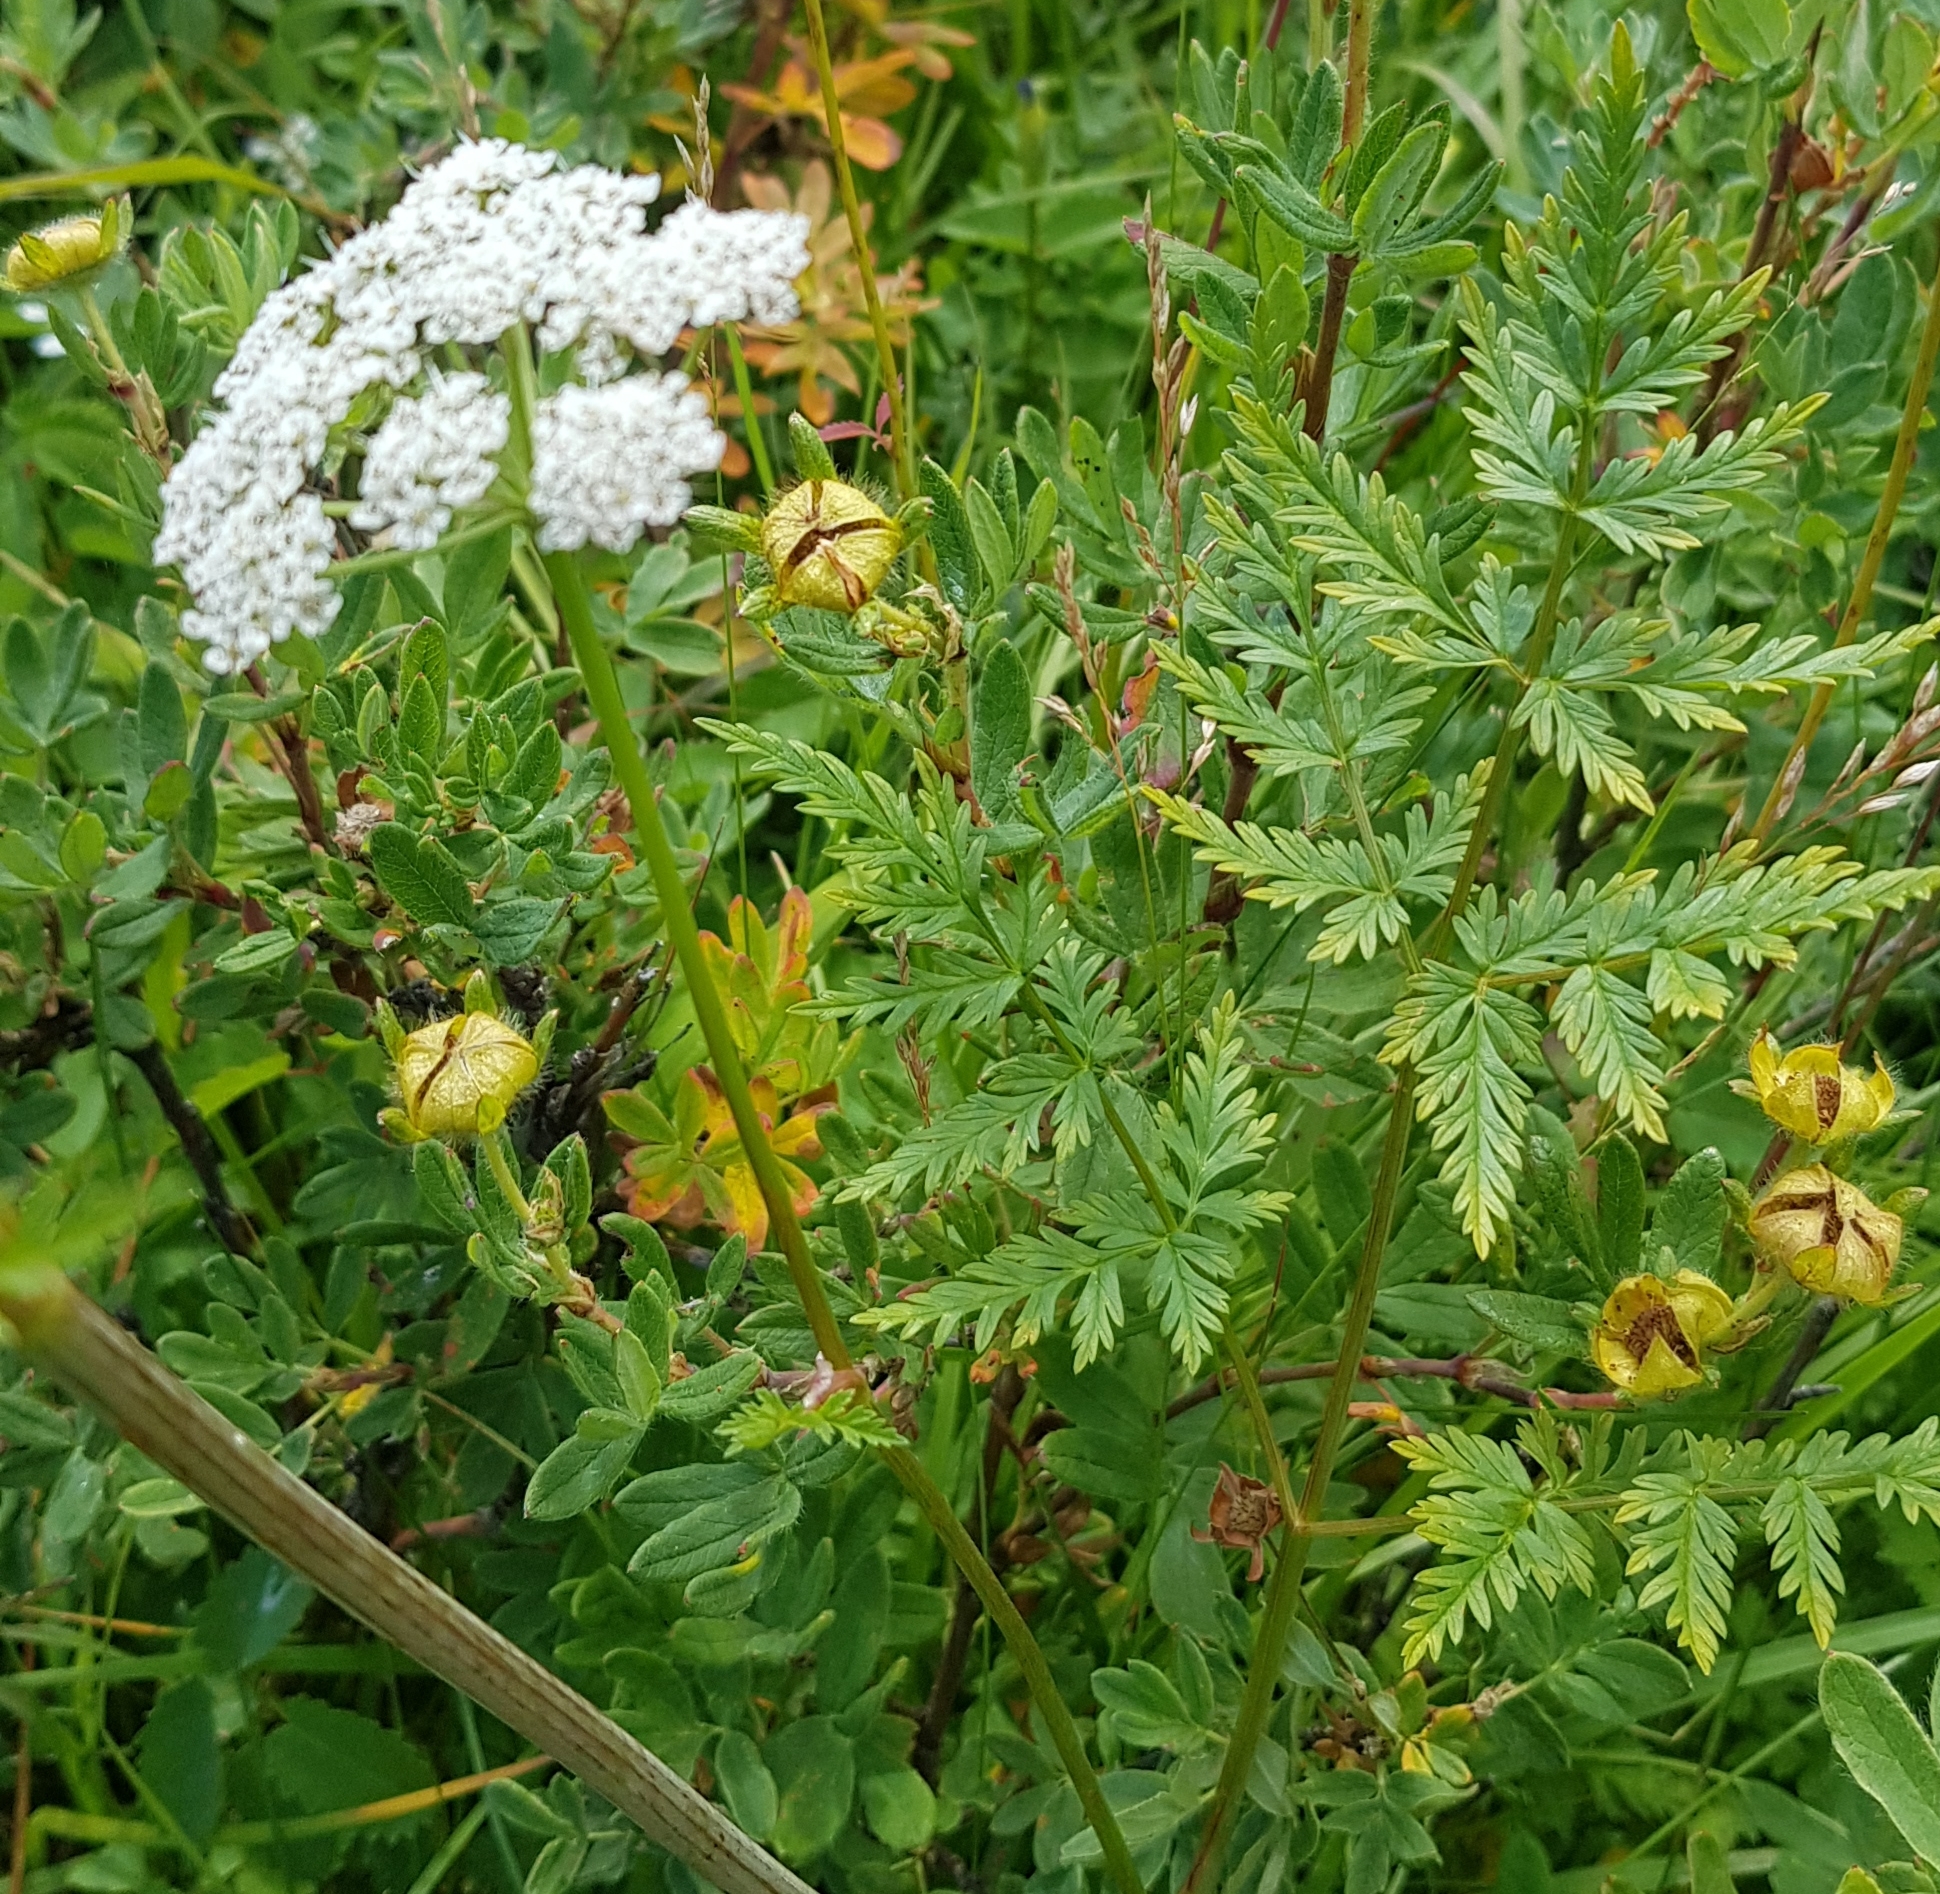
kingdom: Plantae
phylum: Tracheophyta
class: Magnoliopsida
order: Apiales
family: Apiaceae
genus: Conioselinum
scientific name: Conioselinum tataricum
